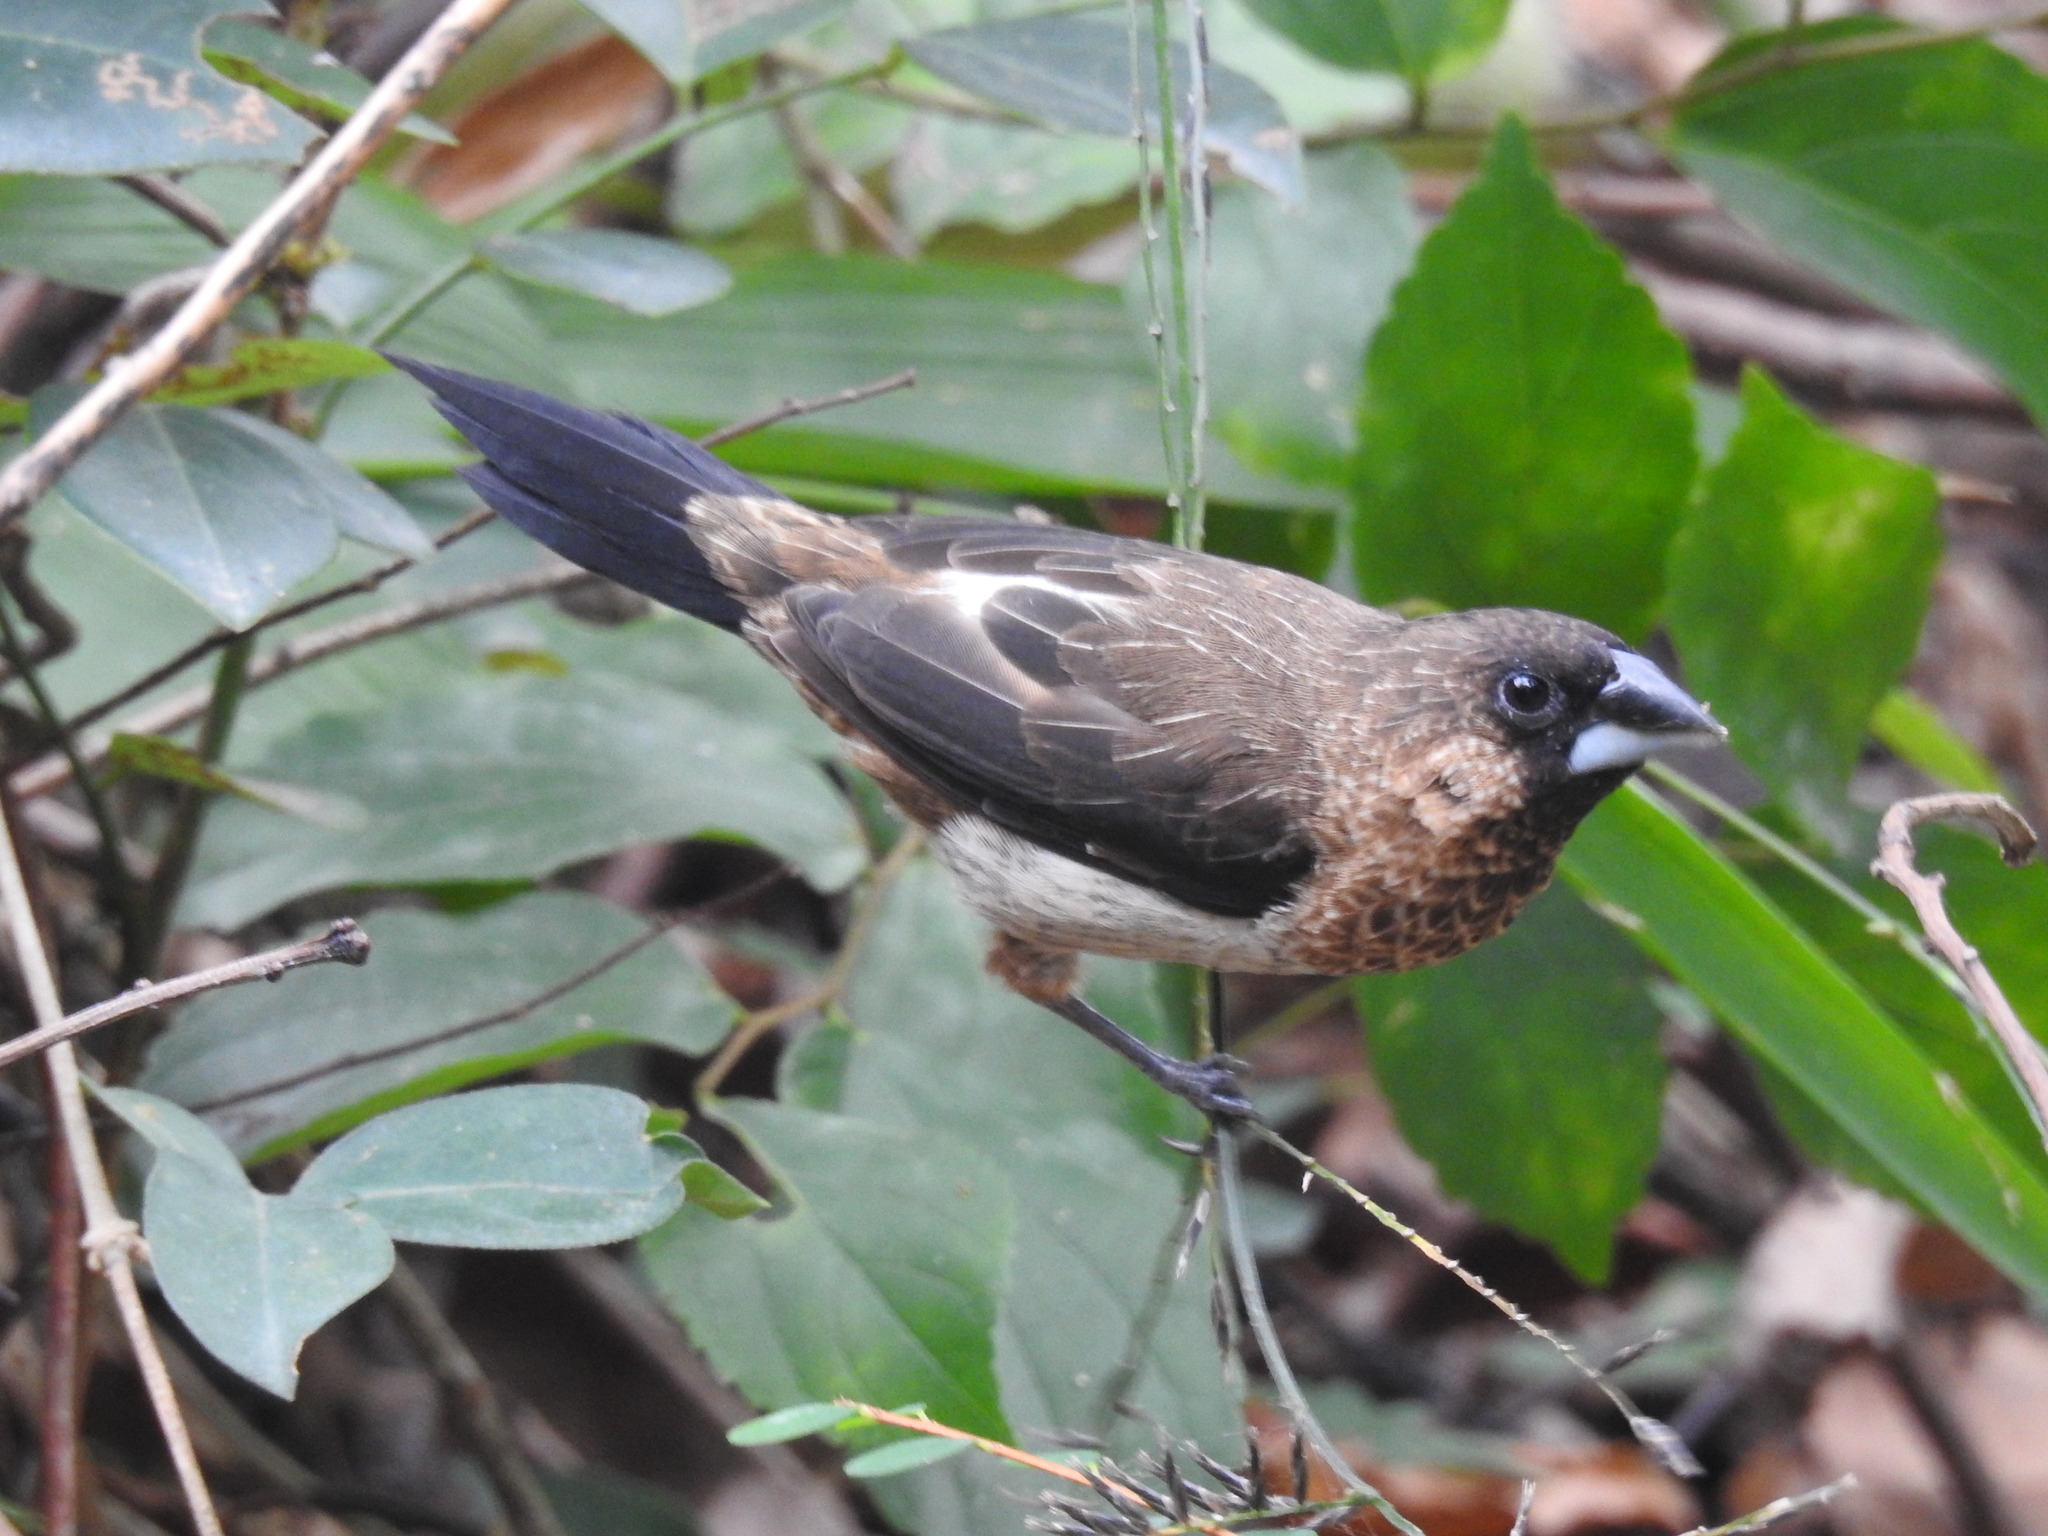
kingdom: Animalia
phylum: Chordata
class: Aves
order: Passeriformes
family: Estrildidae
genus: Lonchura
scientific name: Lonchura striata
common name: White-rumped munia
